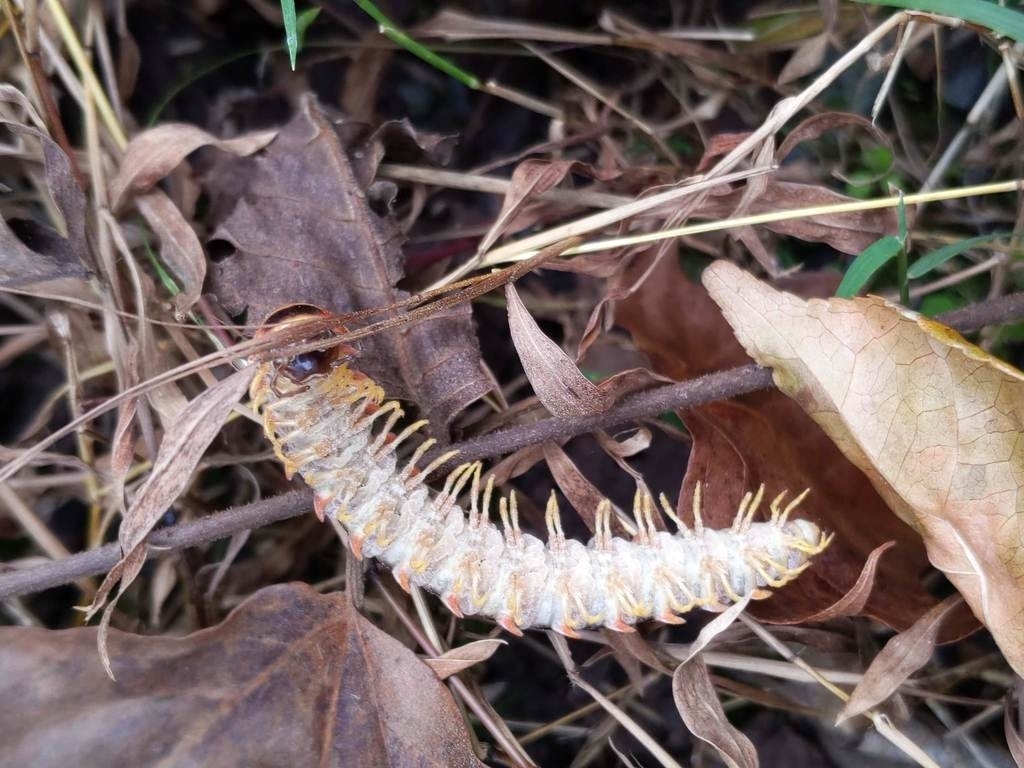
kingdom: Fungi
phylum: Entomophthoromycota
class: Entomophthoromycetes
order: Entomophthorales
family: Entomophthoraceae
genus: Arthrophaga
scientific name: Arthrophaga myriapodina
